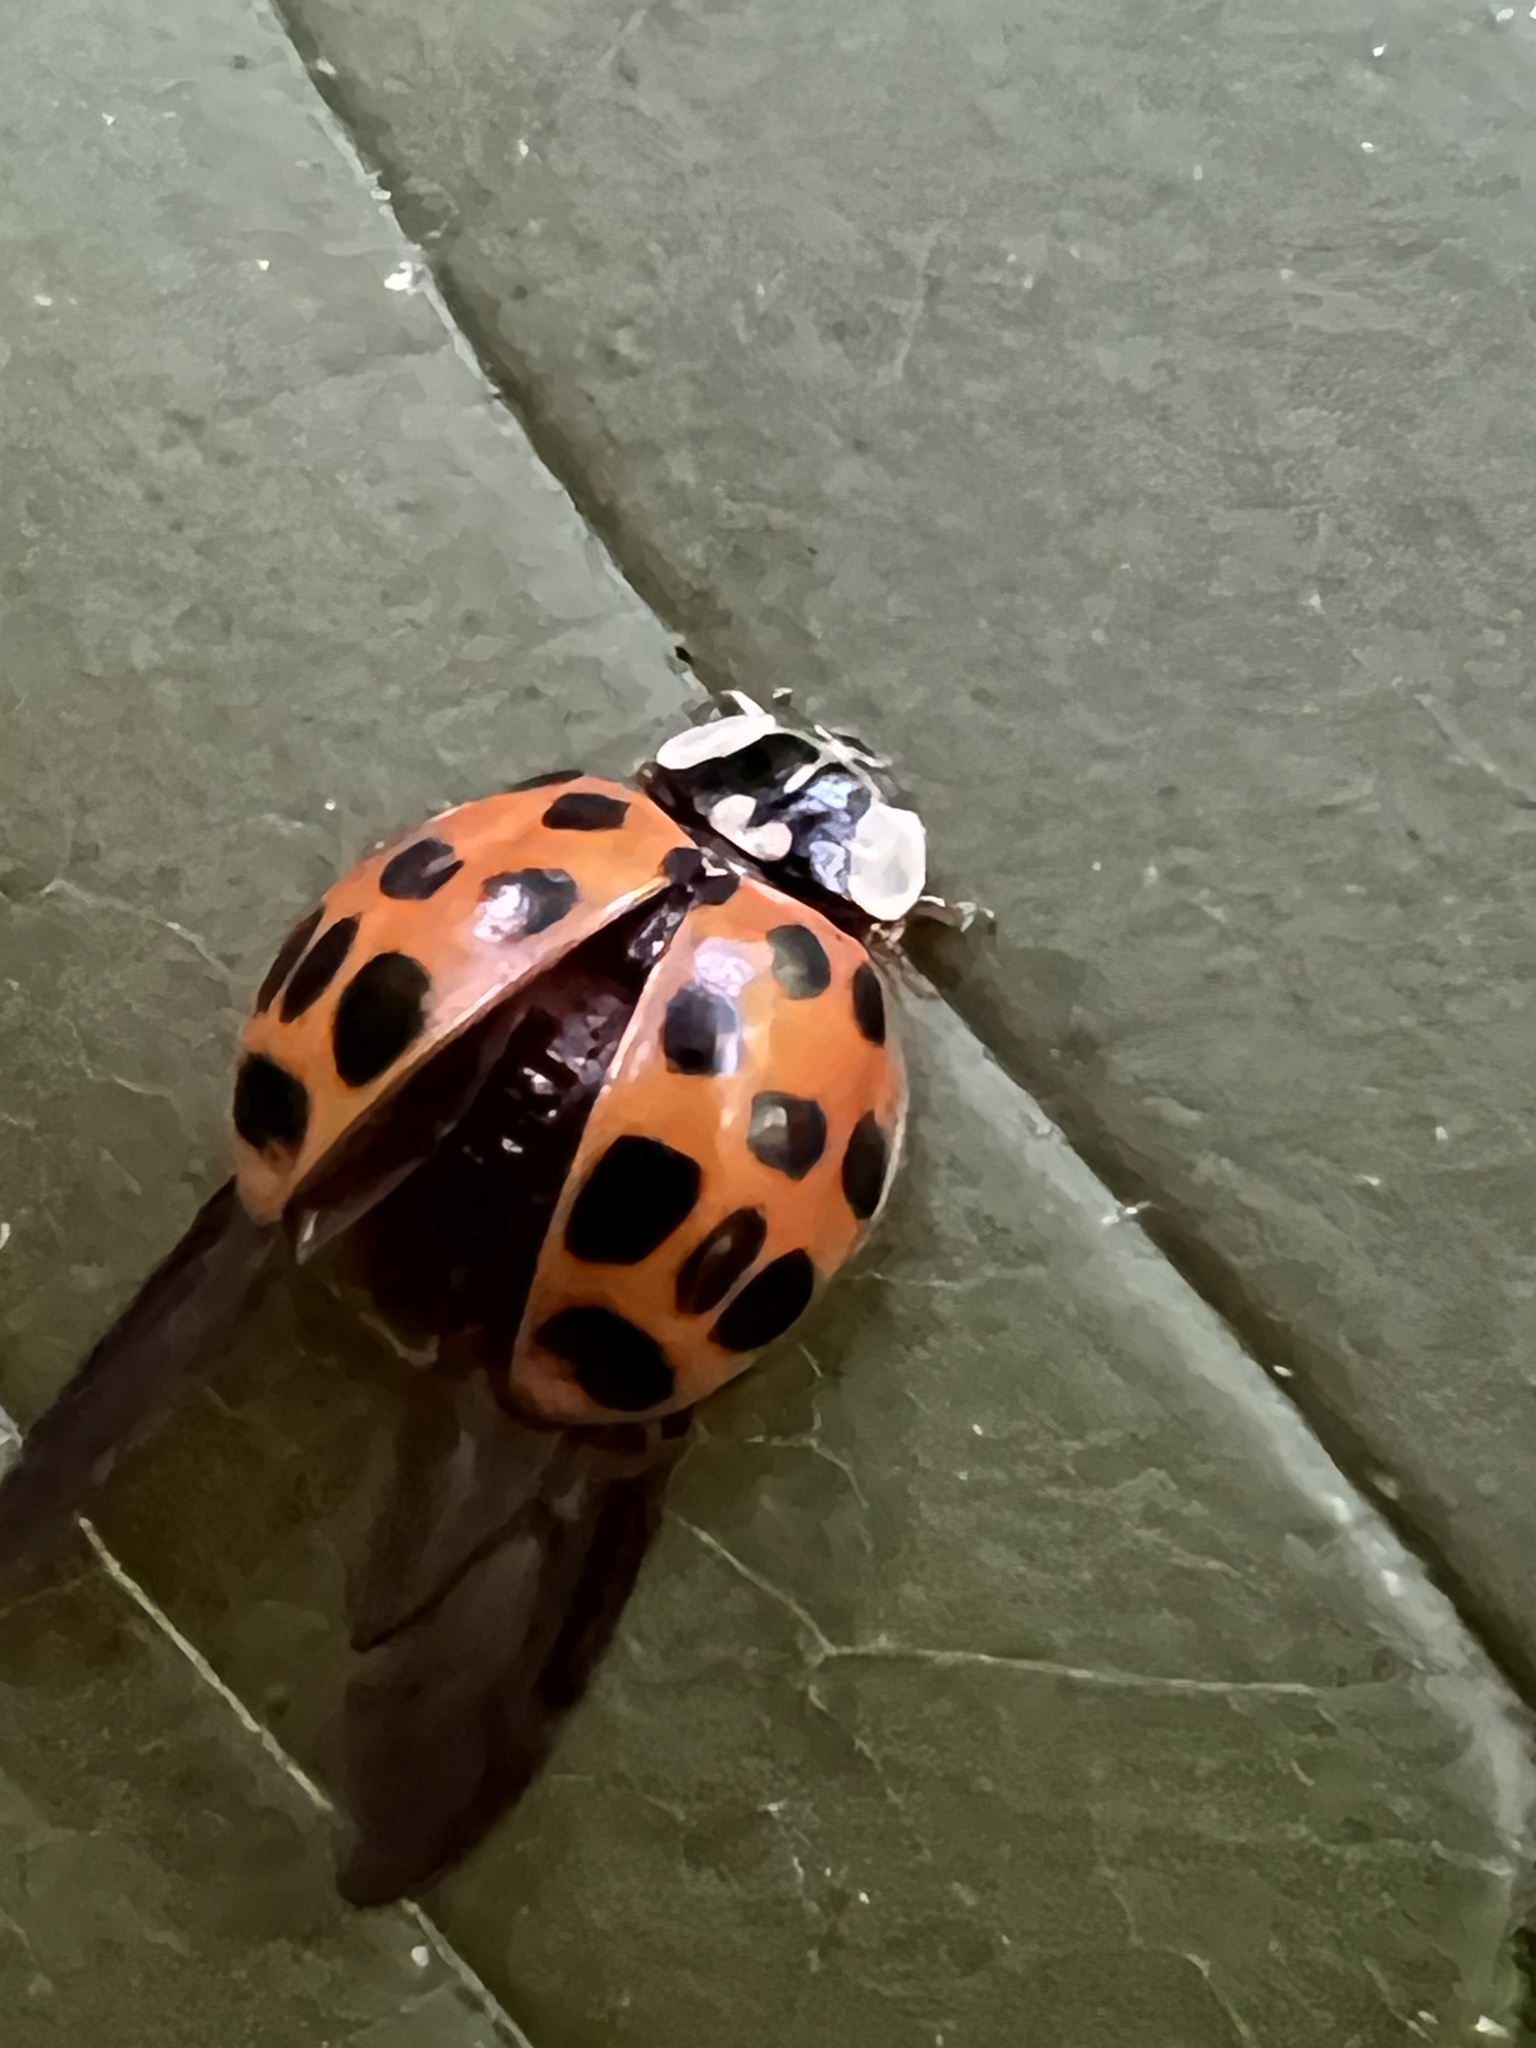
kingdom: Animalia
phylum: Arthropoda
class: Insecta
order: Coleoptera
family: Coccinellidae
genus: Harmonia
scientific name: Harmonia axyridis
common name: Harlequin ladybird
